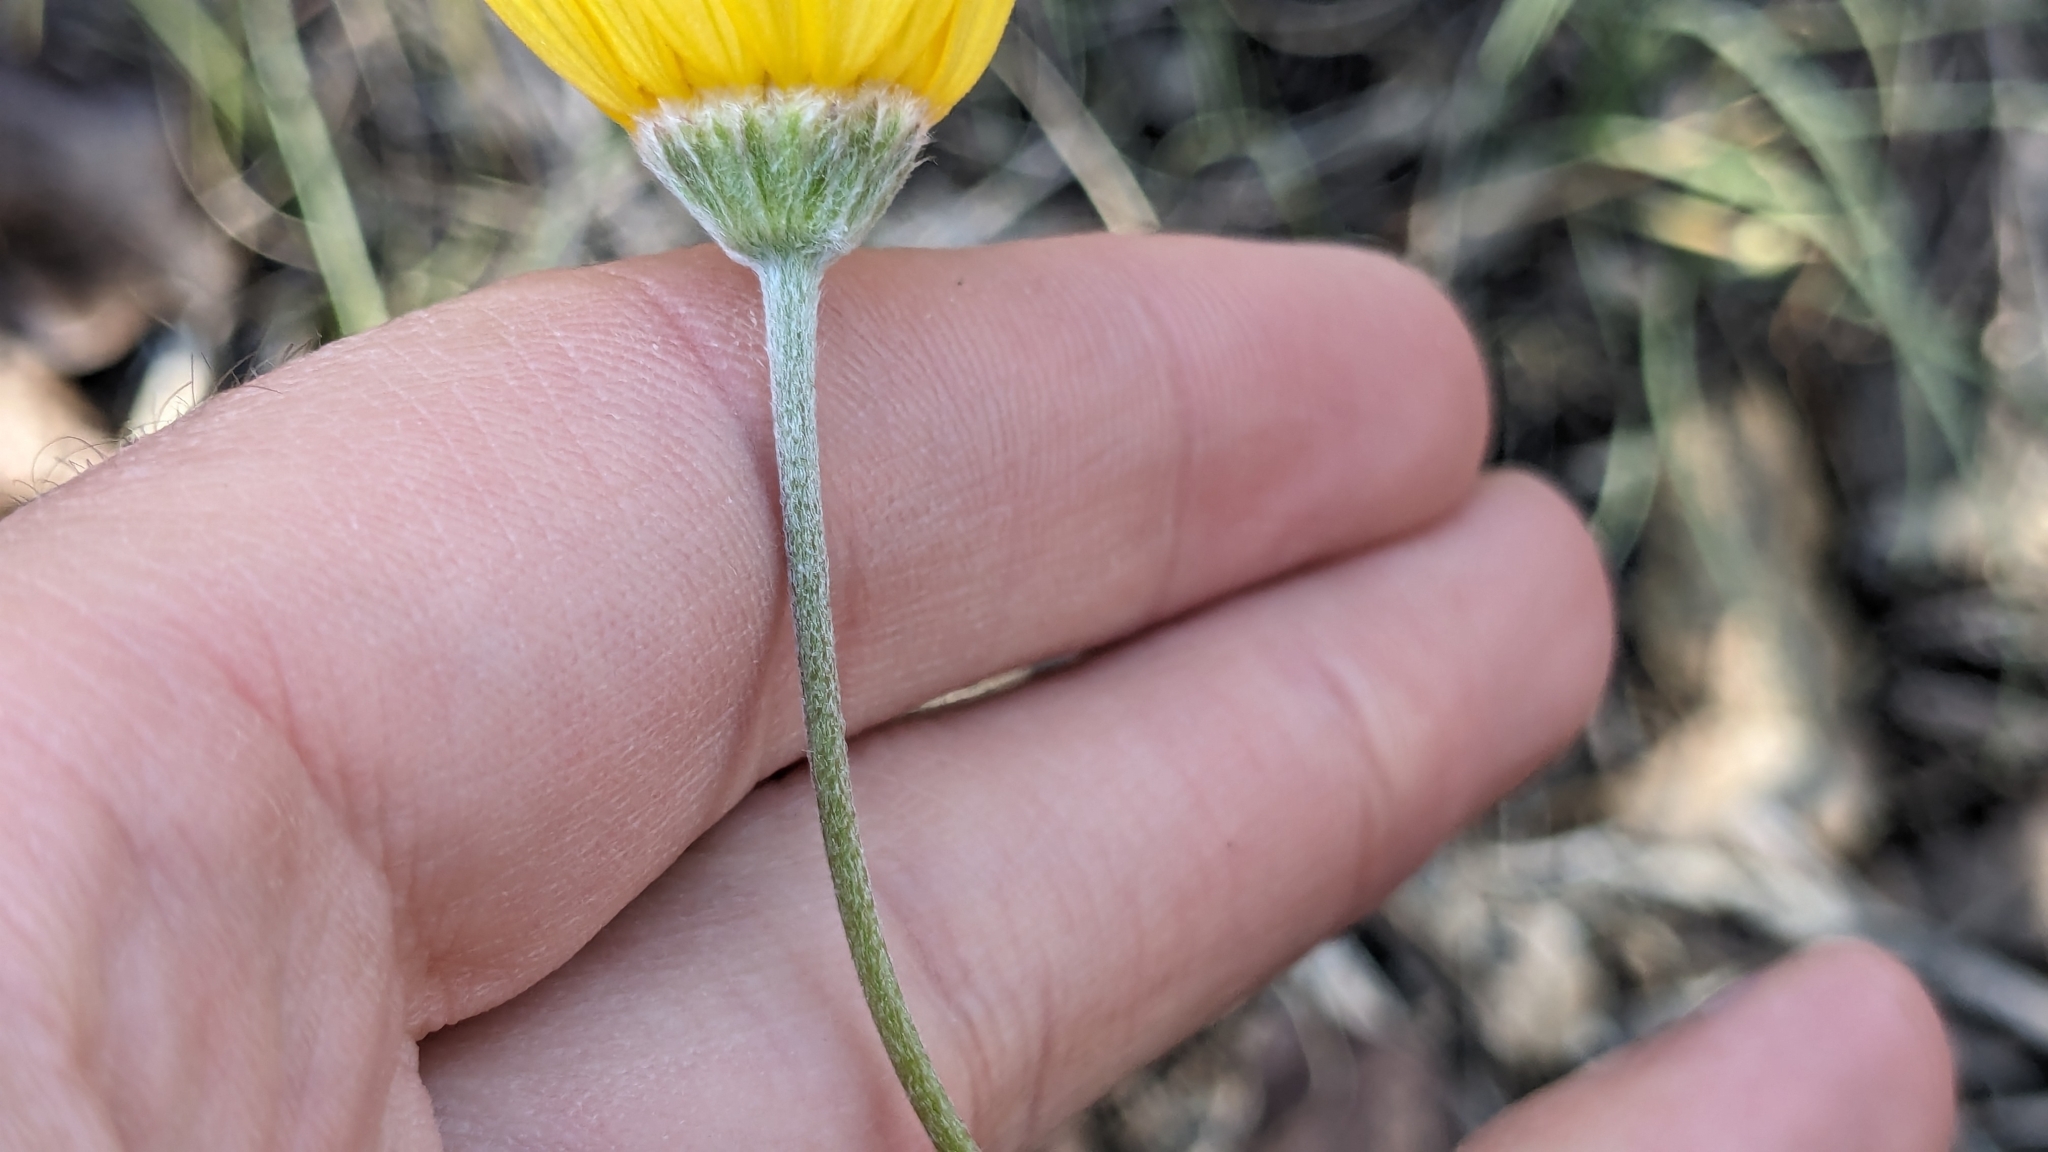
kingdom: Plantae
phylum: Tracheophyta
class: Magnoliopsida
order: Asterales
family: Asteraceae
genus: Tetraneuris
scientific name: Tetraneuris scaposa
